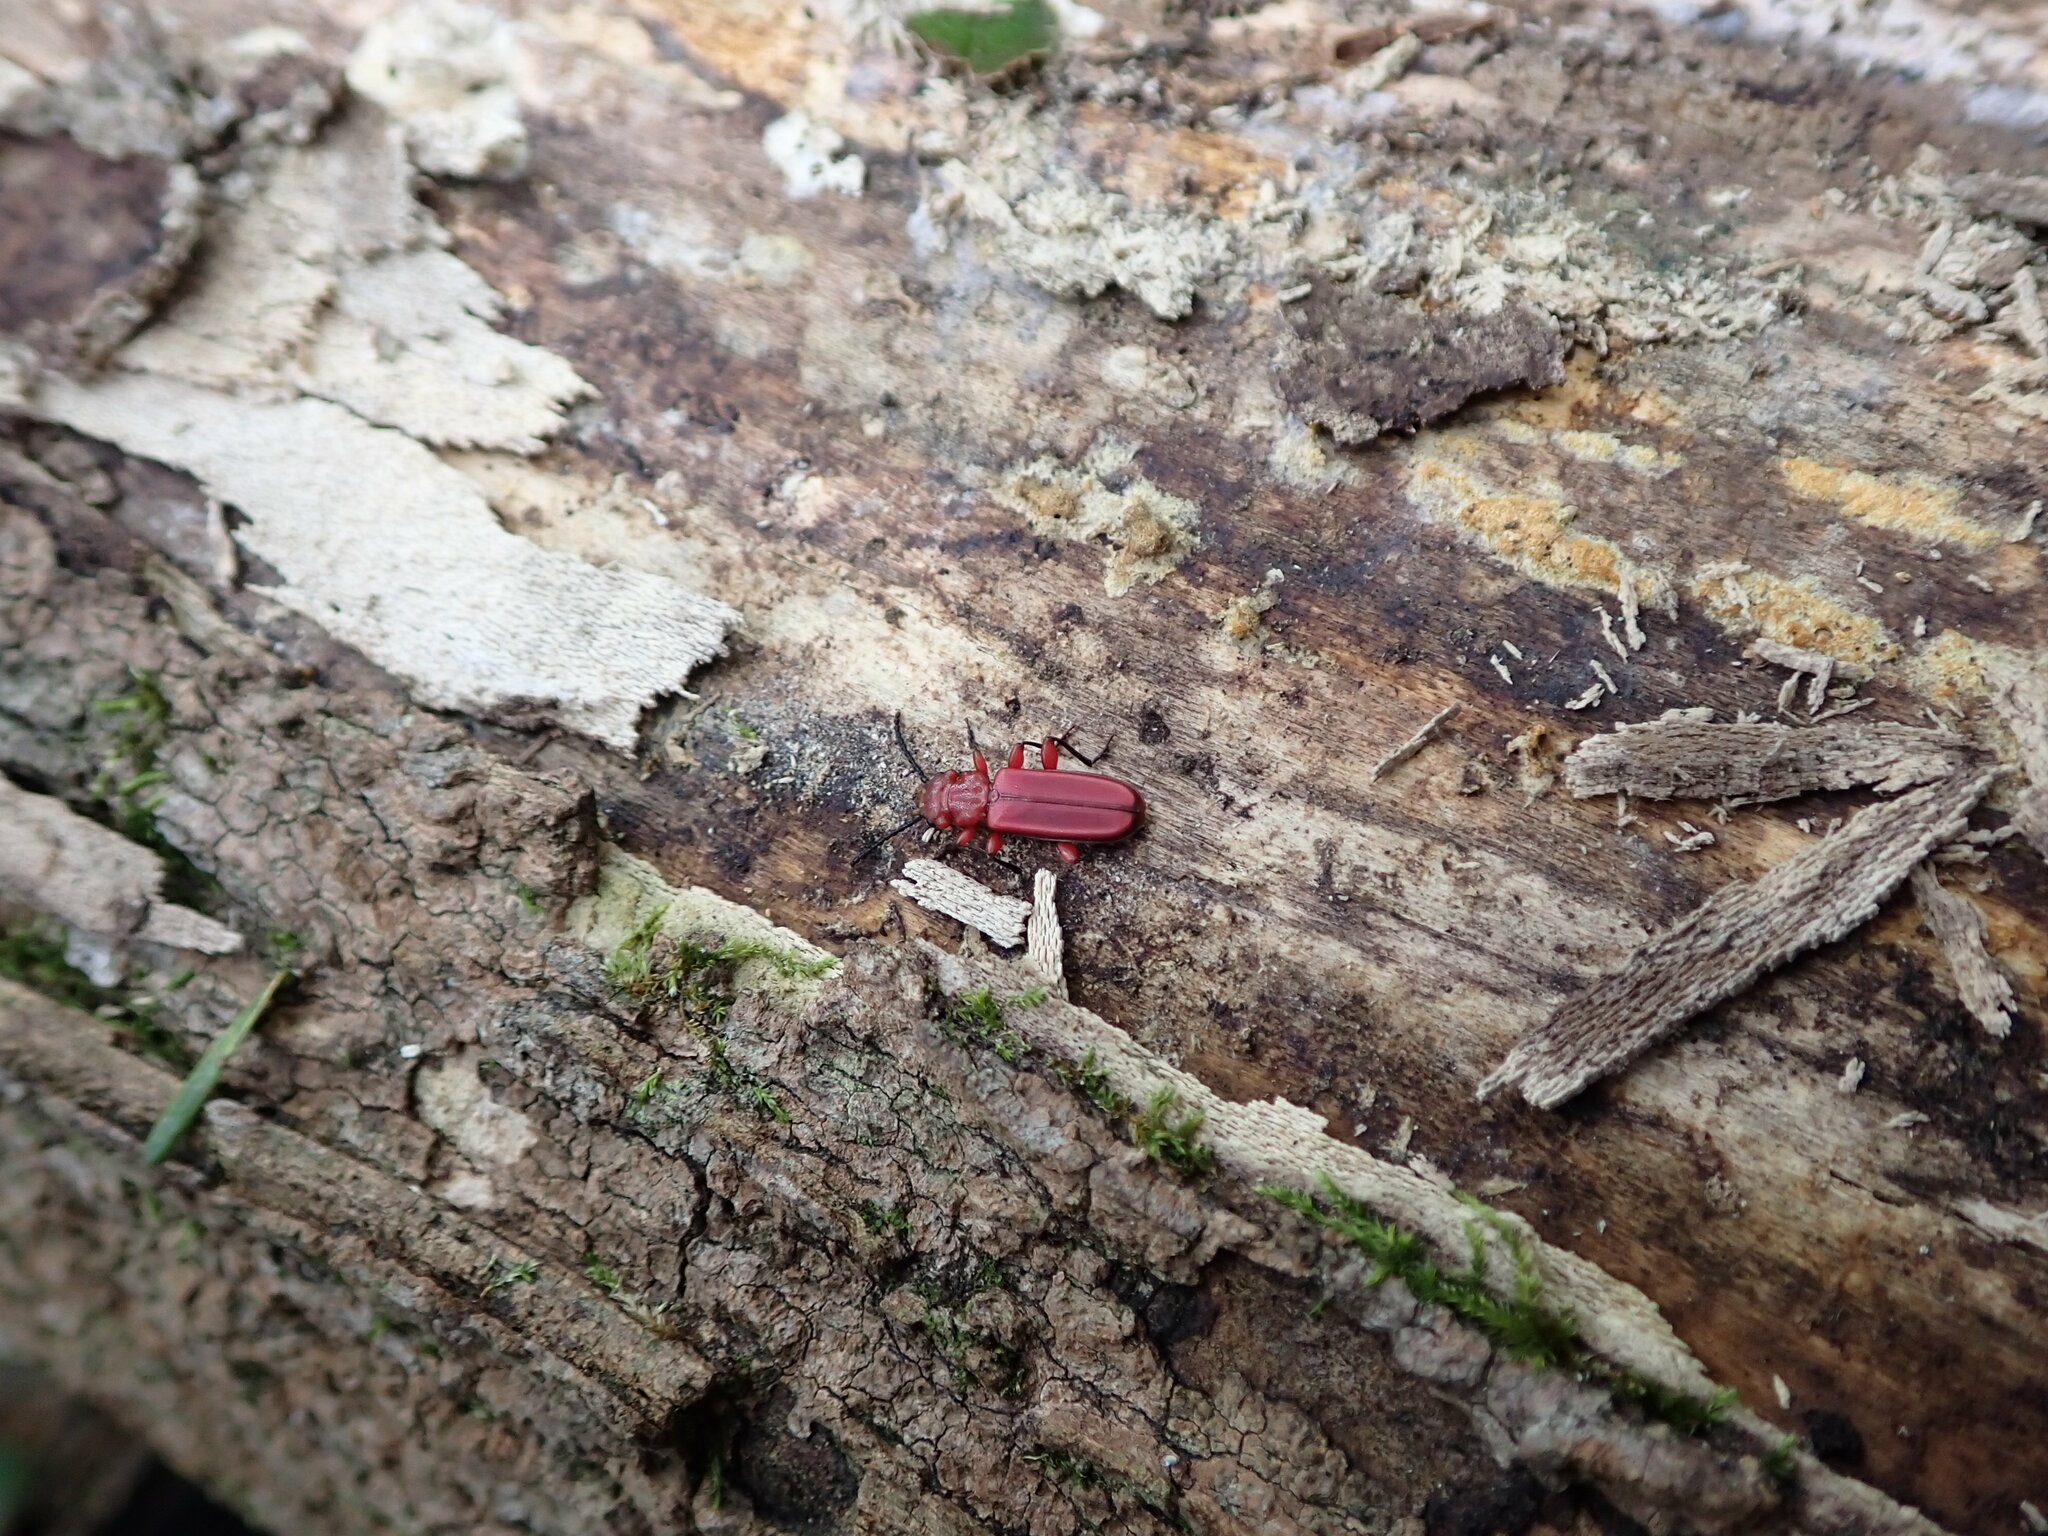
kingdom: Animalia
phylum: Arthropoda
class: Insecta
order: Coleoptera
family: Cucujidae
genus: Cucujus
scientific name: Cucujus clavipes
